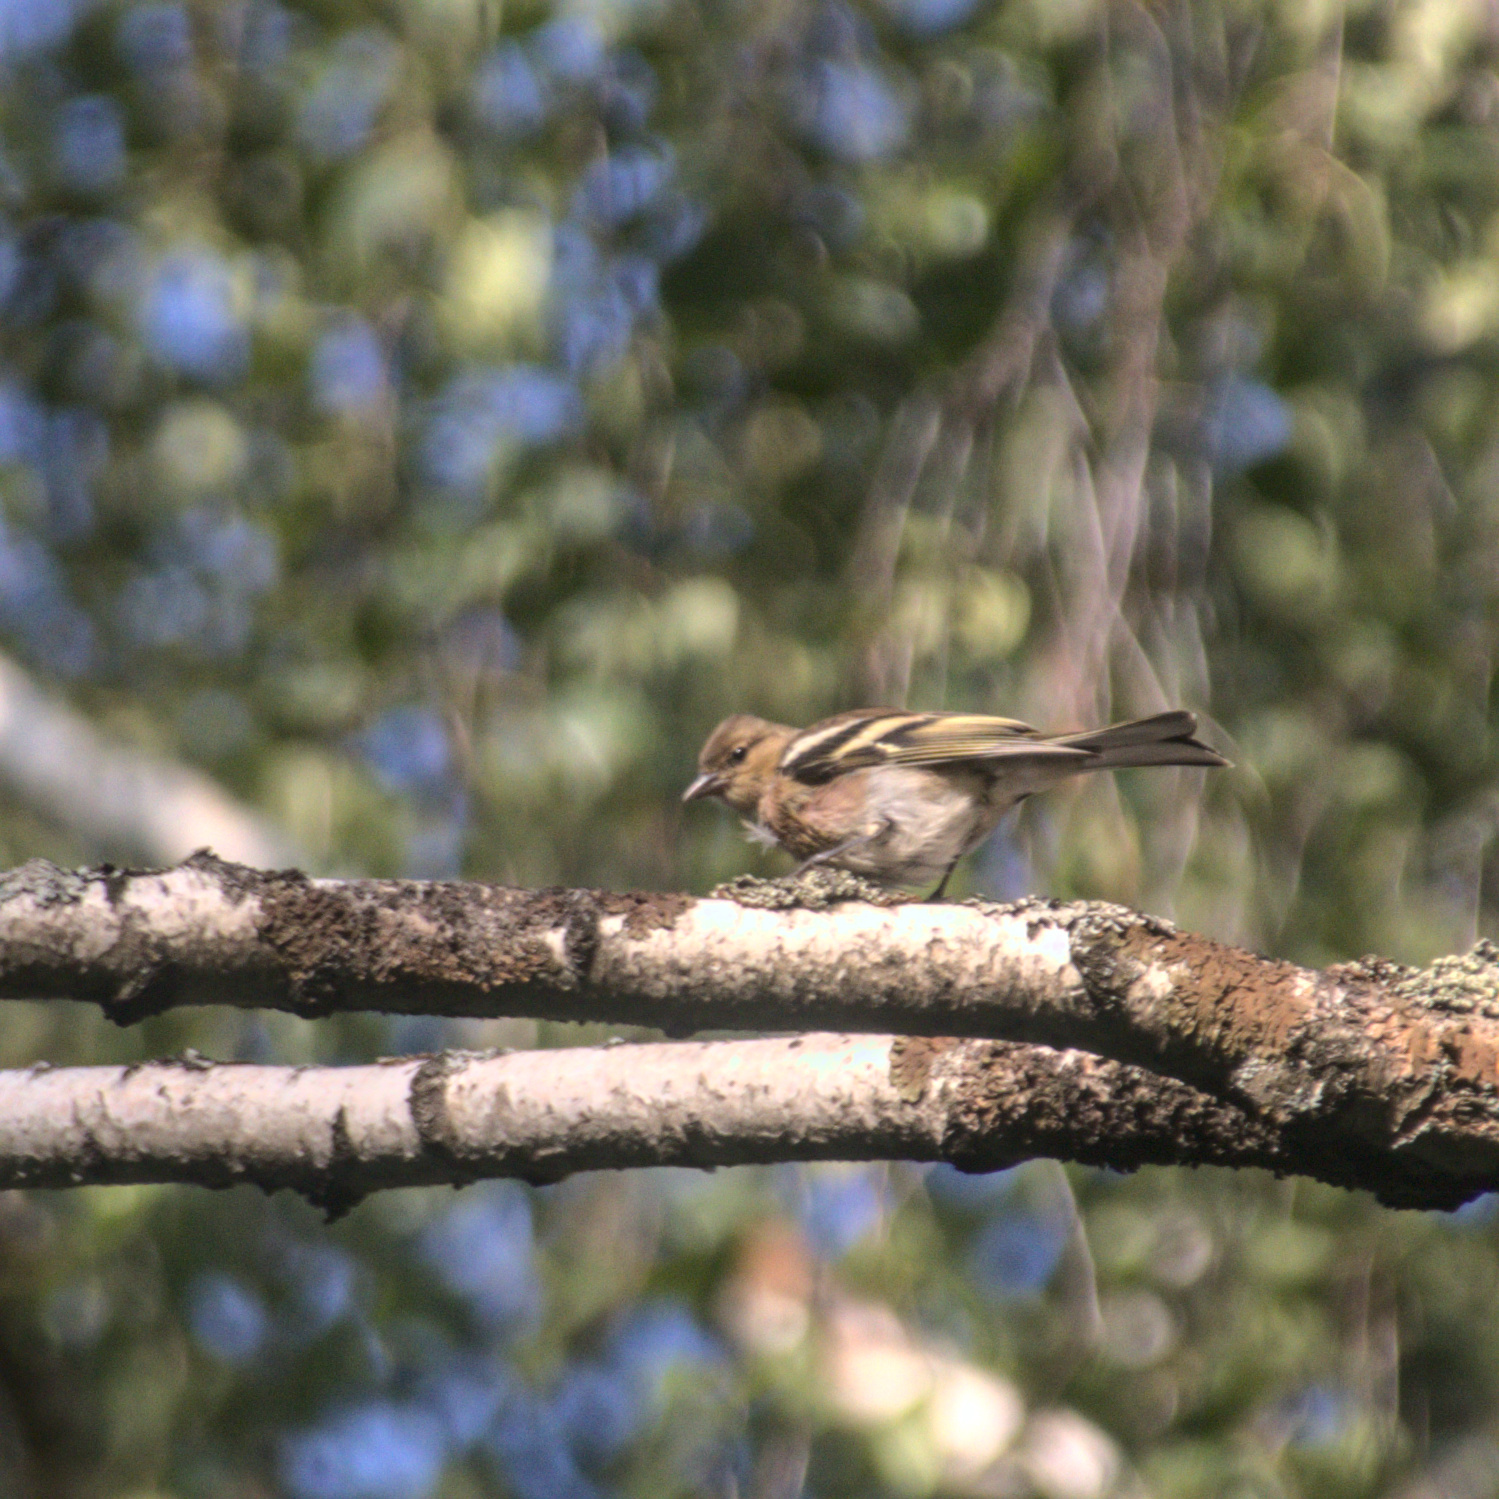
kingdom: Animalia
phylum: Chordata
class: Aves
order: Passeriformes
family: Fringillidae
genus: Fringilla
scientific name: Fringilla coelebs
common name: Common chaffinch
